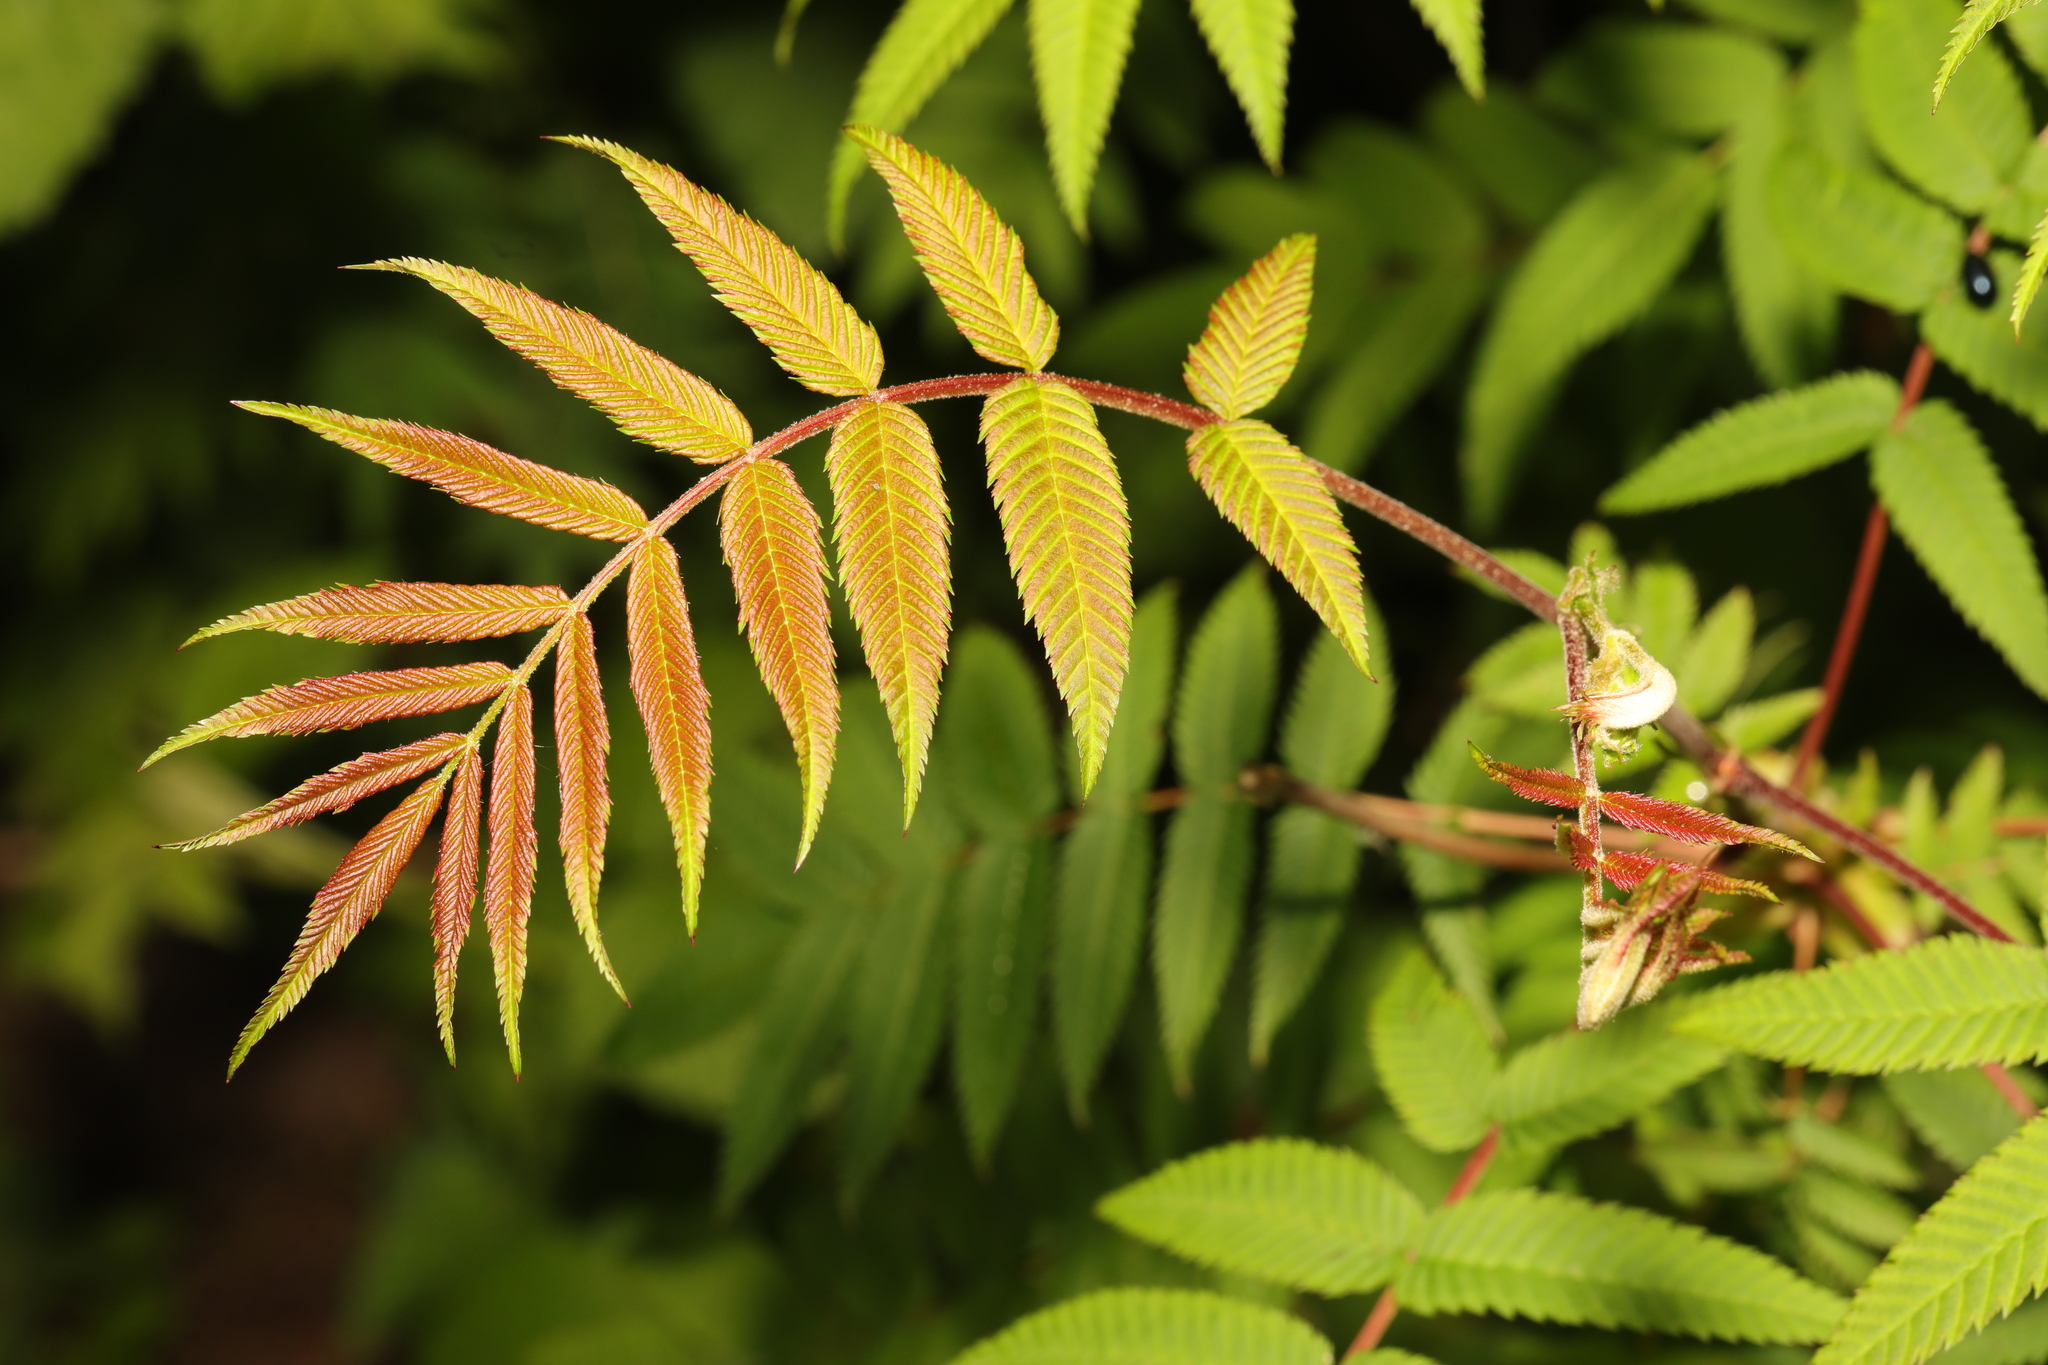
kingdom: Plantae
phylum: Tracheophyta
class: Magnoliopsida
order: Rosales
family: Rosaceae
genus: Sorbaria
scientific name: Sorbaria sorbifolia
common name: False spiraea
